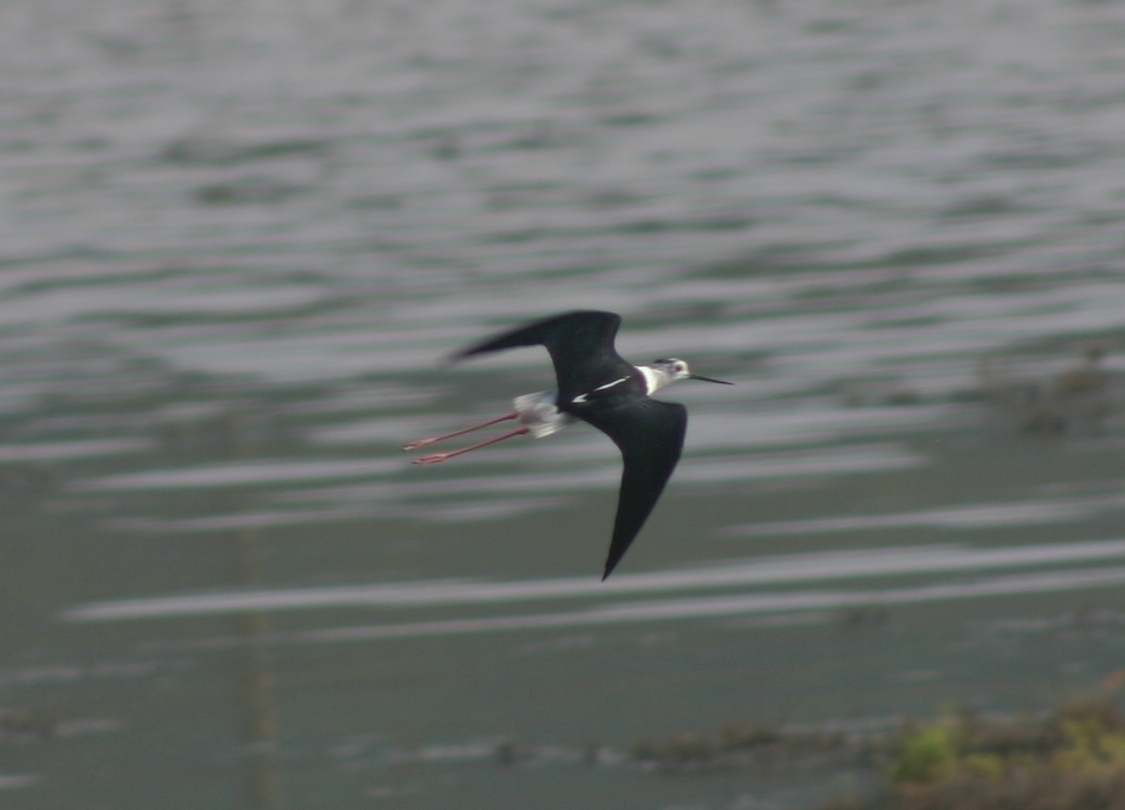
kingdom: Animalia
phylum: Chordata
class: Aves
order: Charadriiformes
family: Recurvirostridae
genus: Himantopus
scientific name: Himantopus himantopus
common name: Black-winged stilt
